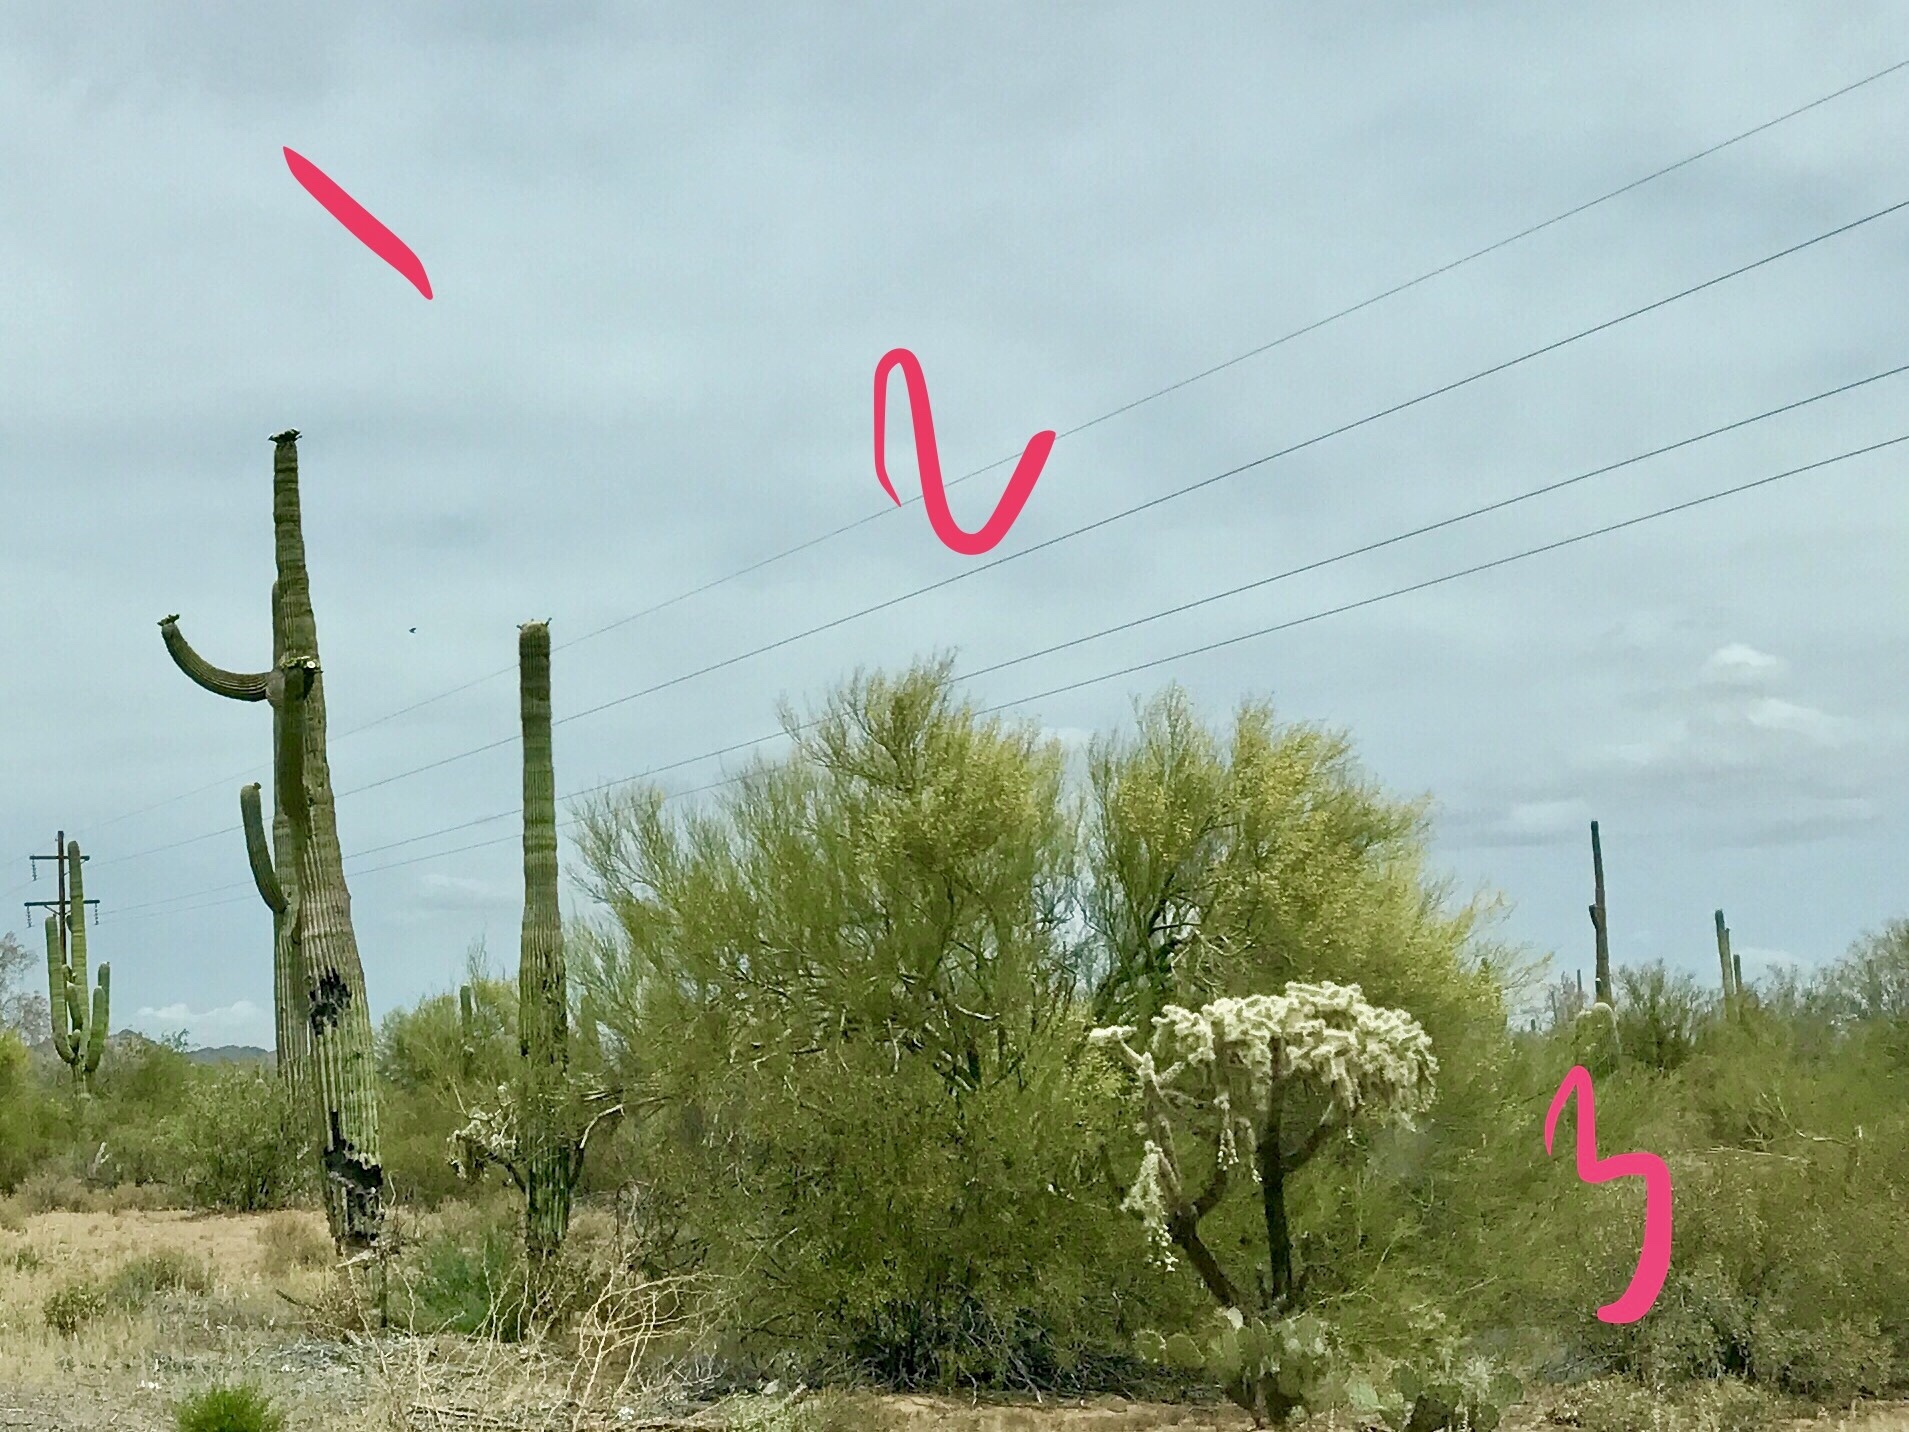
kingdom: Plantae
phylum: Tracheophyta
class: Magnoliopsida
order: Caryophyllales
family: Cactaceae
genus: Carnegiea
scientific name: Carnegiea gigantea
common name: Saguaro
